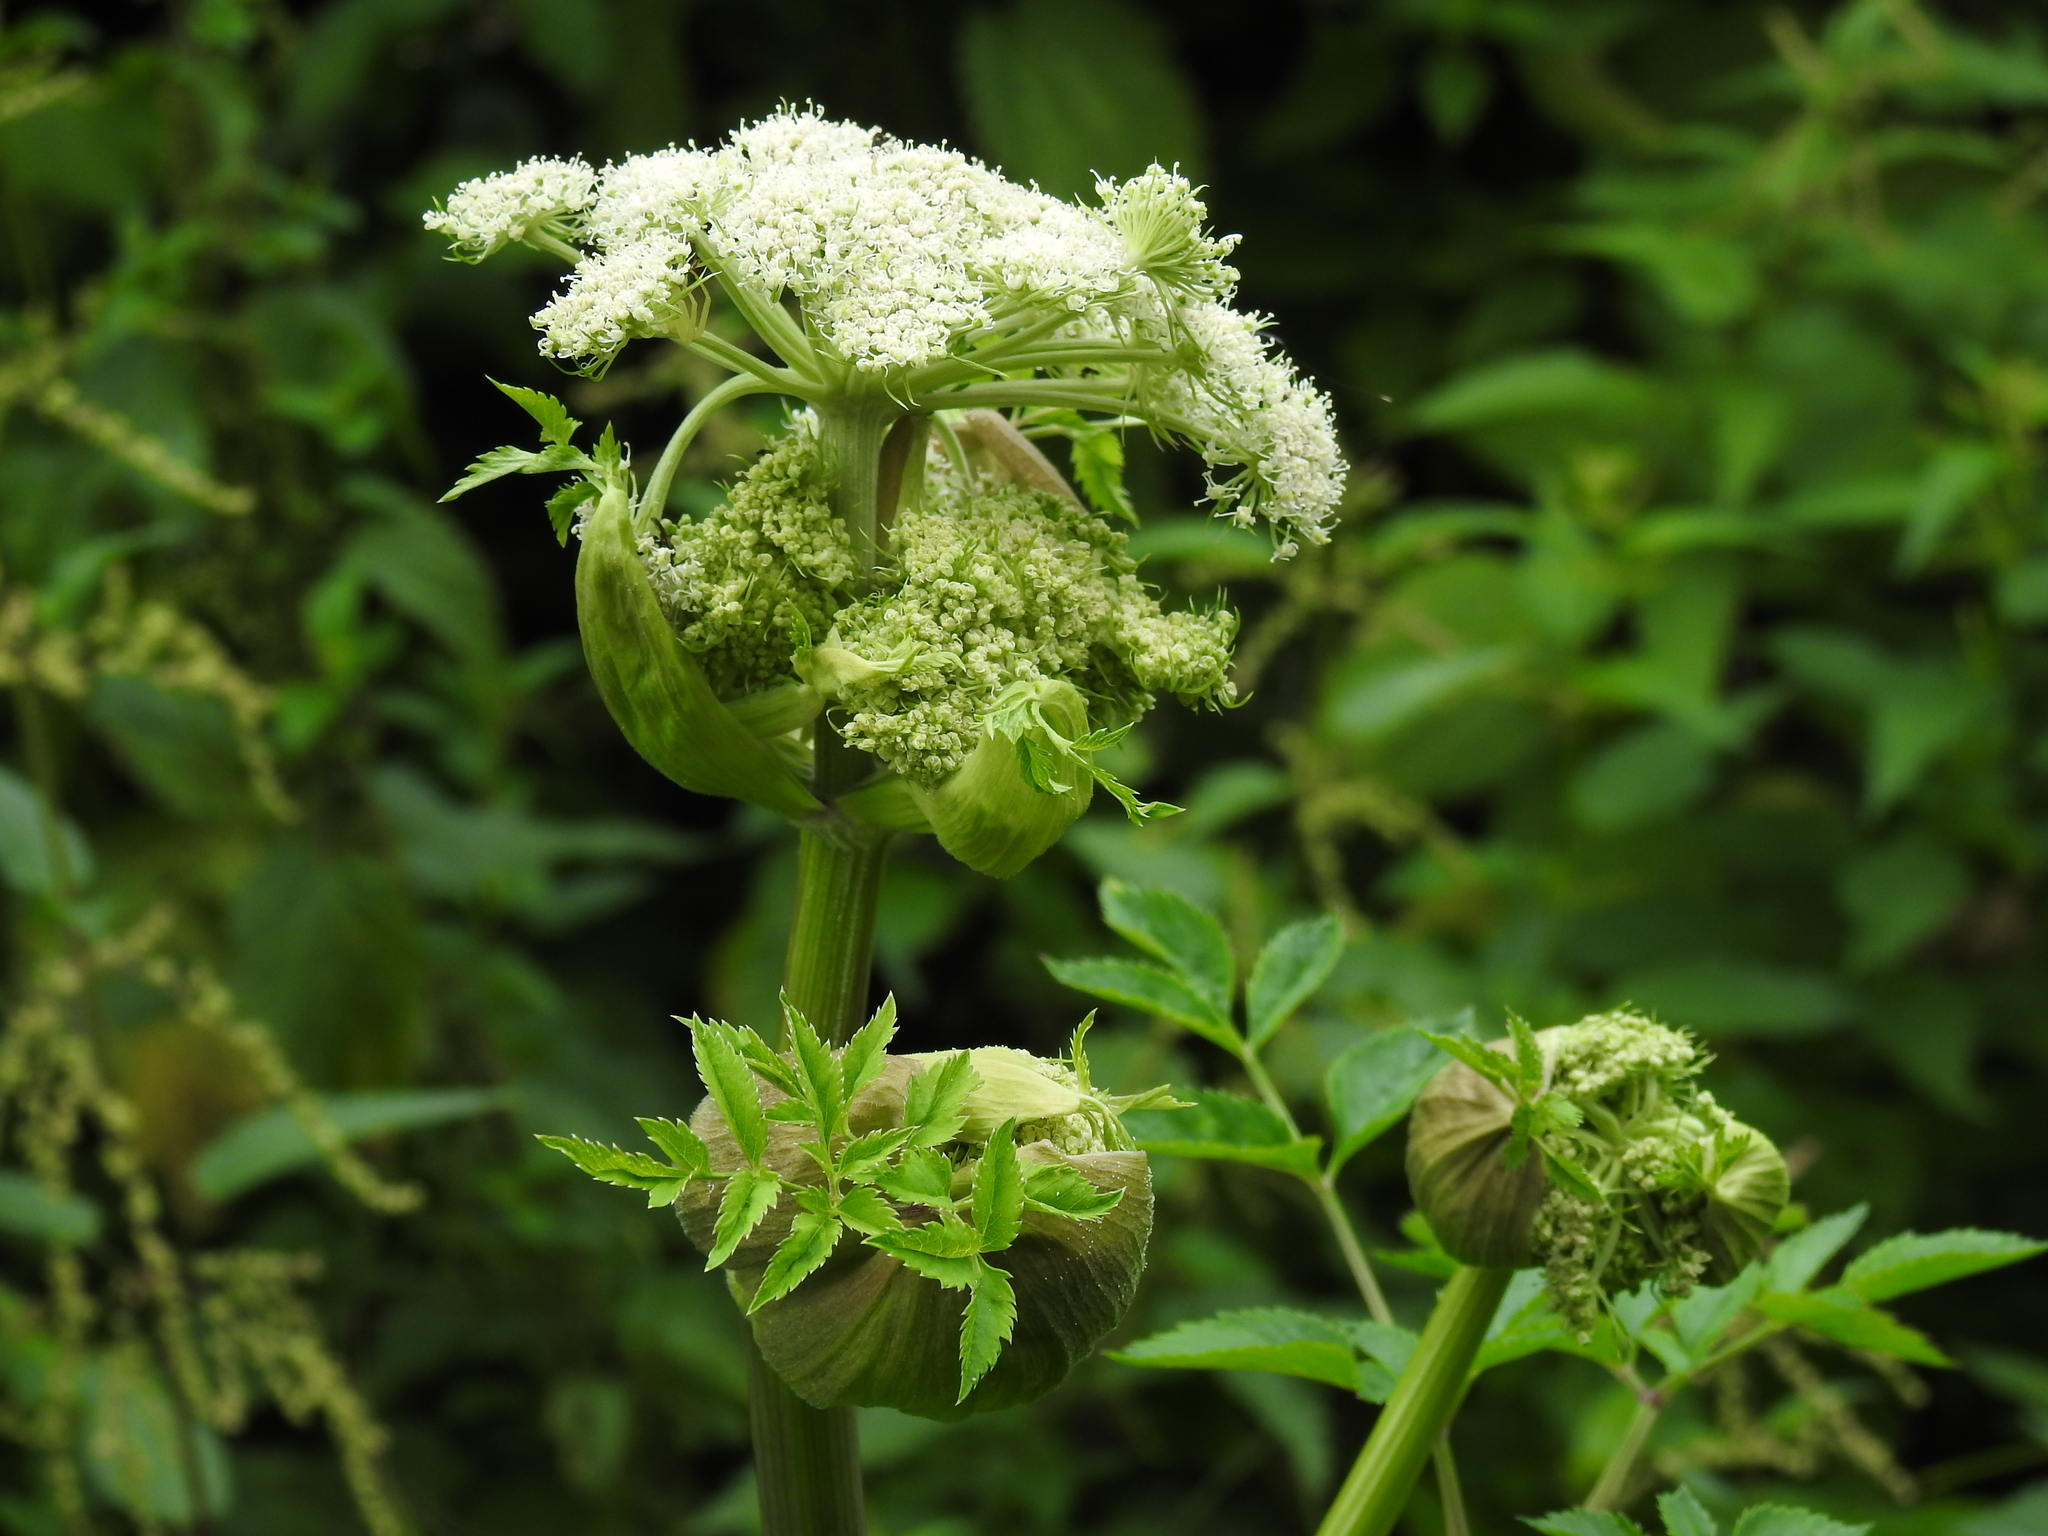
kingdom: Plantae
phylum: Tracheophyta
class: Magnoliopsida
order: Apiales
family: Apiaceae
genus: Angelica
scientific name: Angelica sylvestris
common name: Wild angelica
